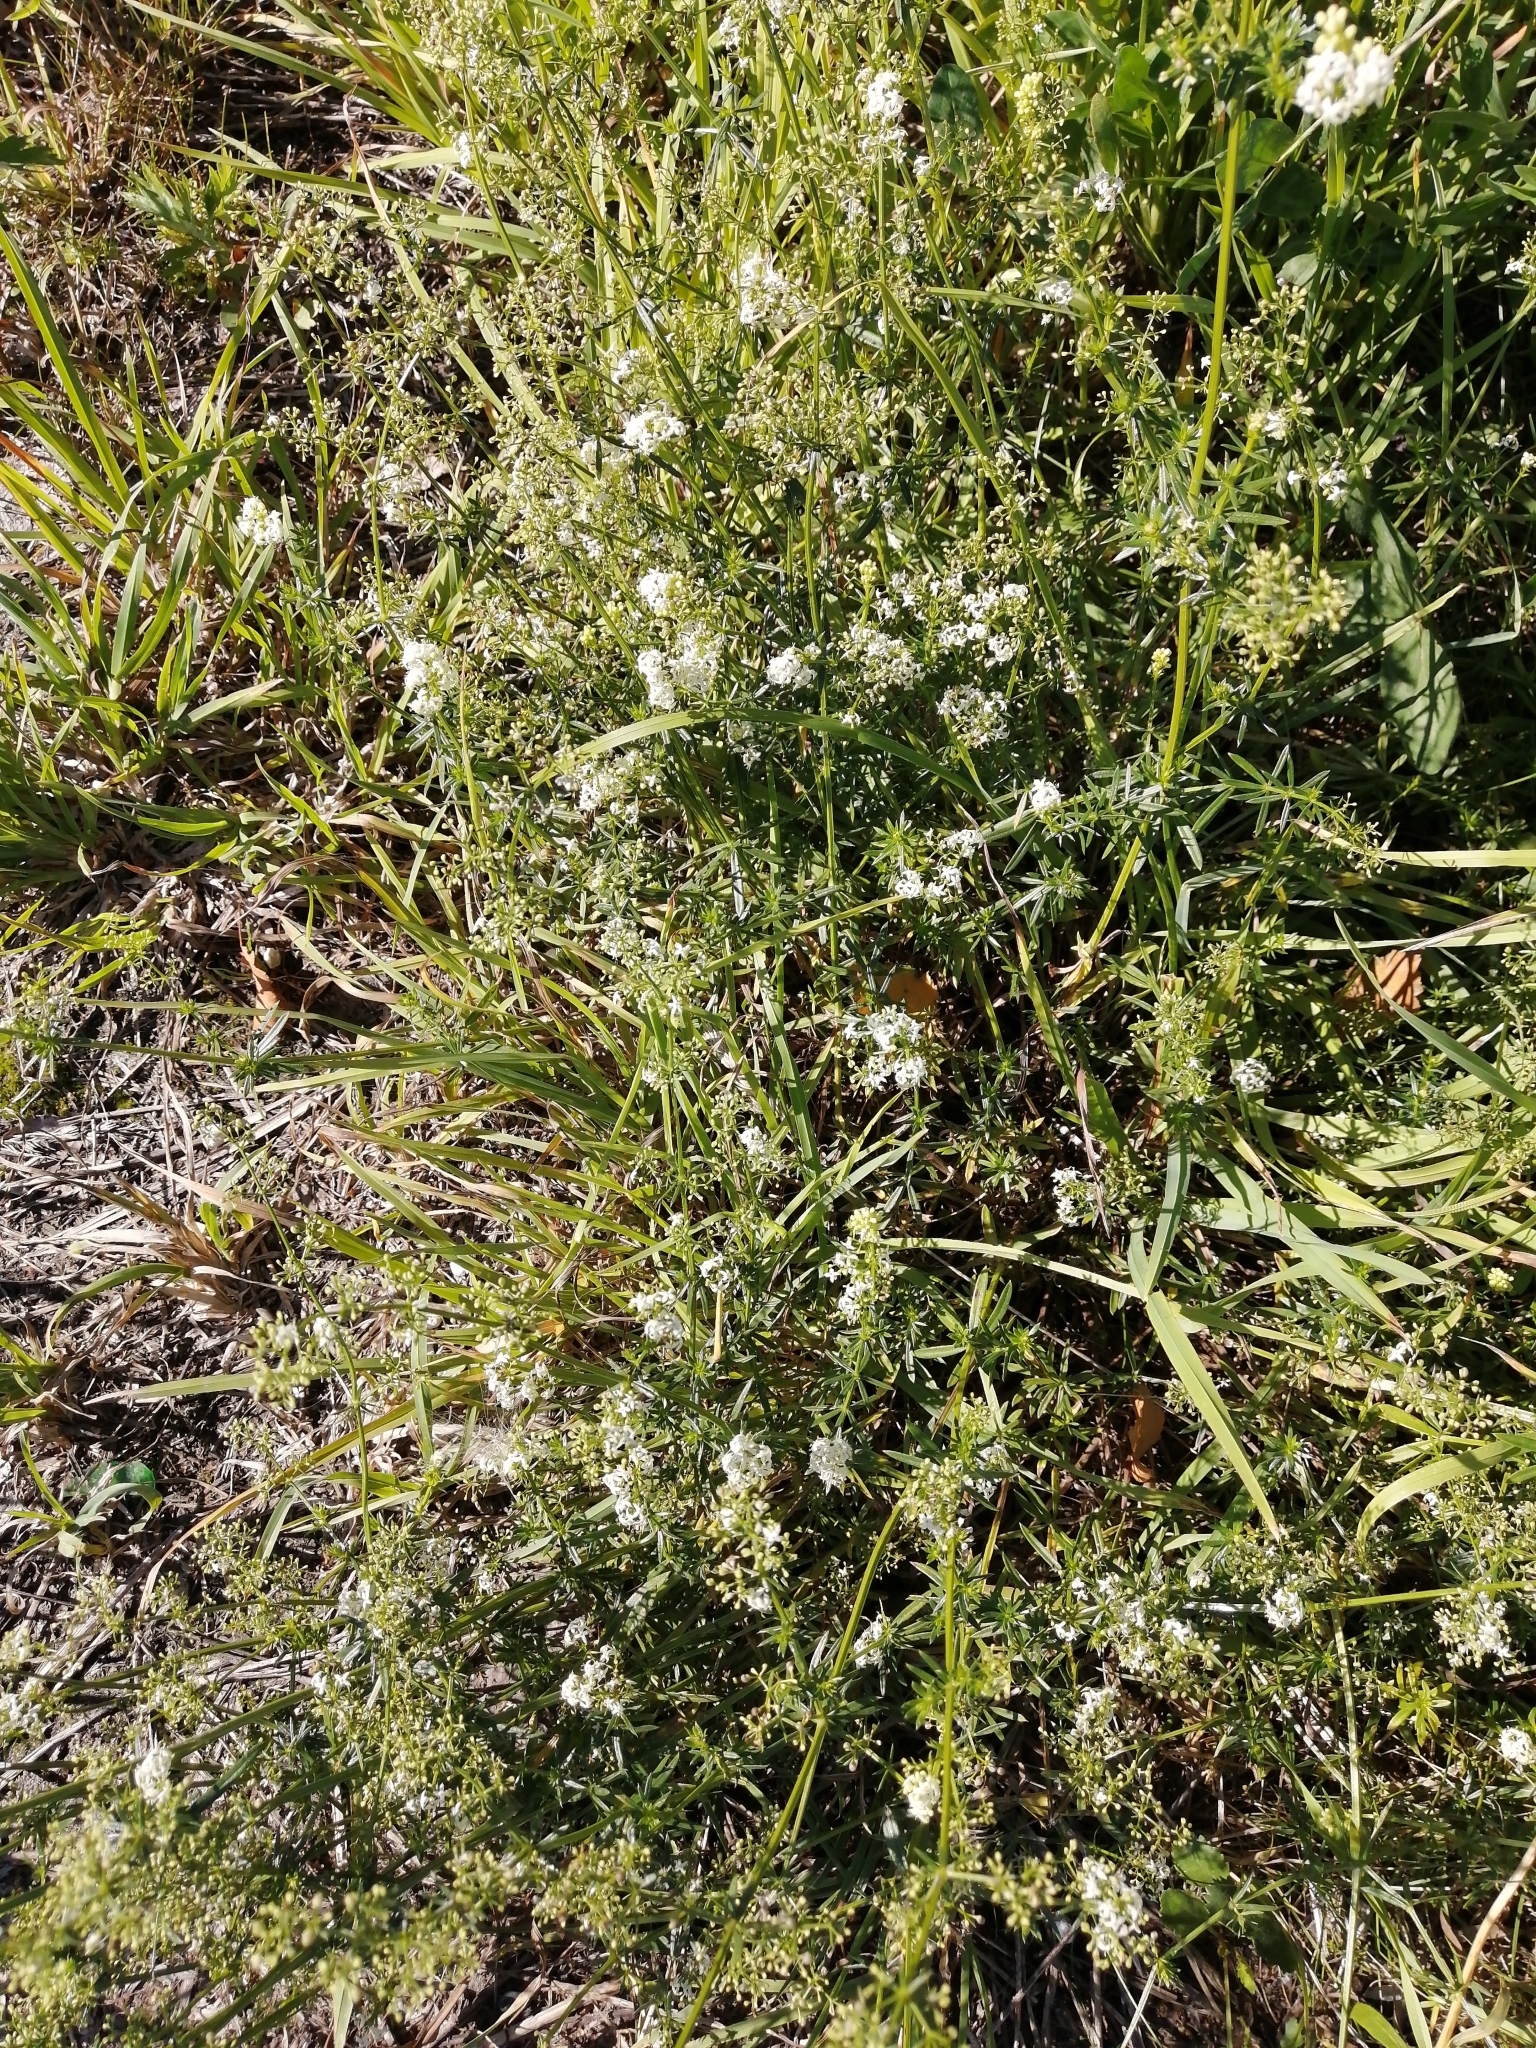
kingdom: Plantae
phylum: Tracheophyta
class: Magnoliopsida
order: Gentianales
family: Rubiaceae
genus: Galium
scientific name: Galium mollugo
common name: Hedge bedstraw
